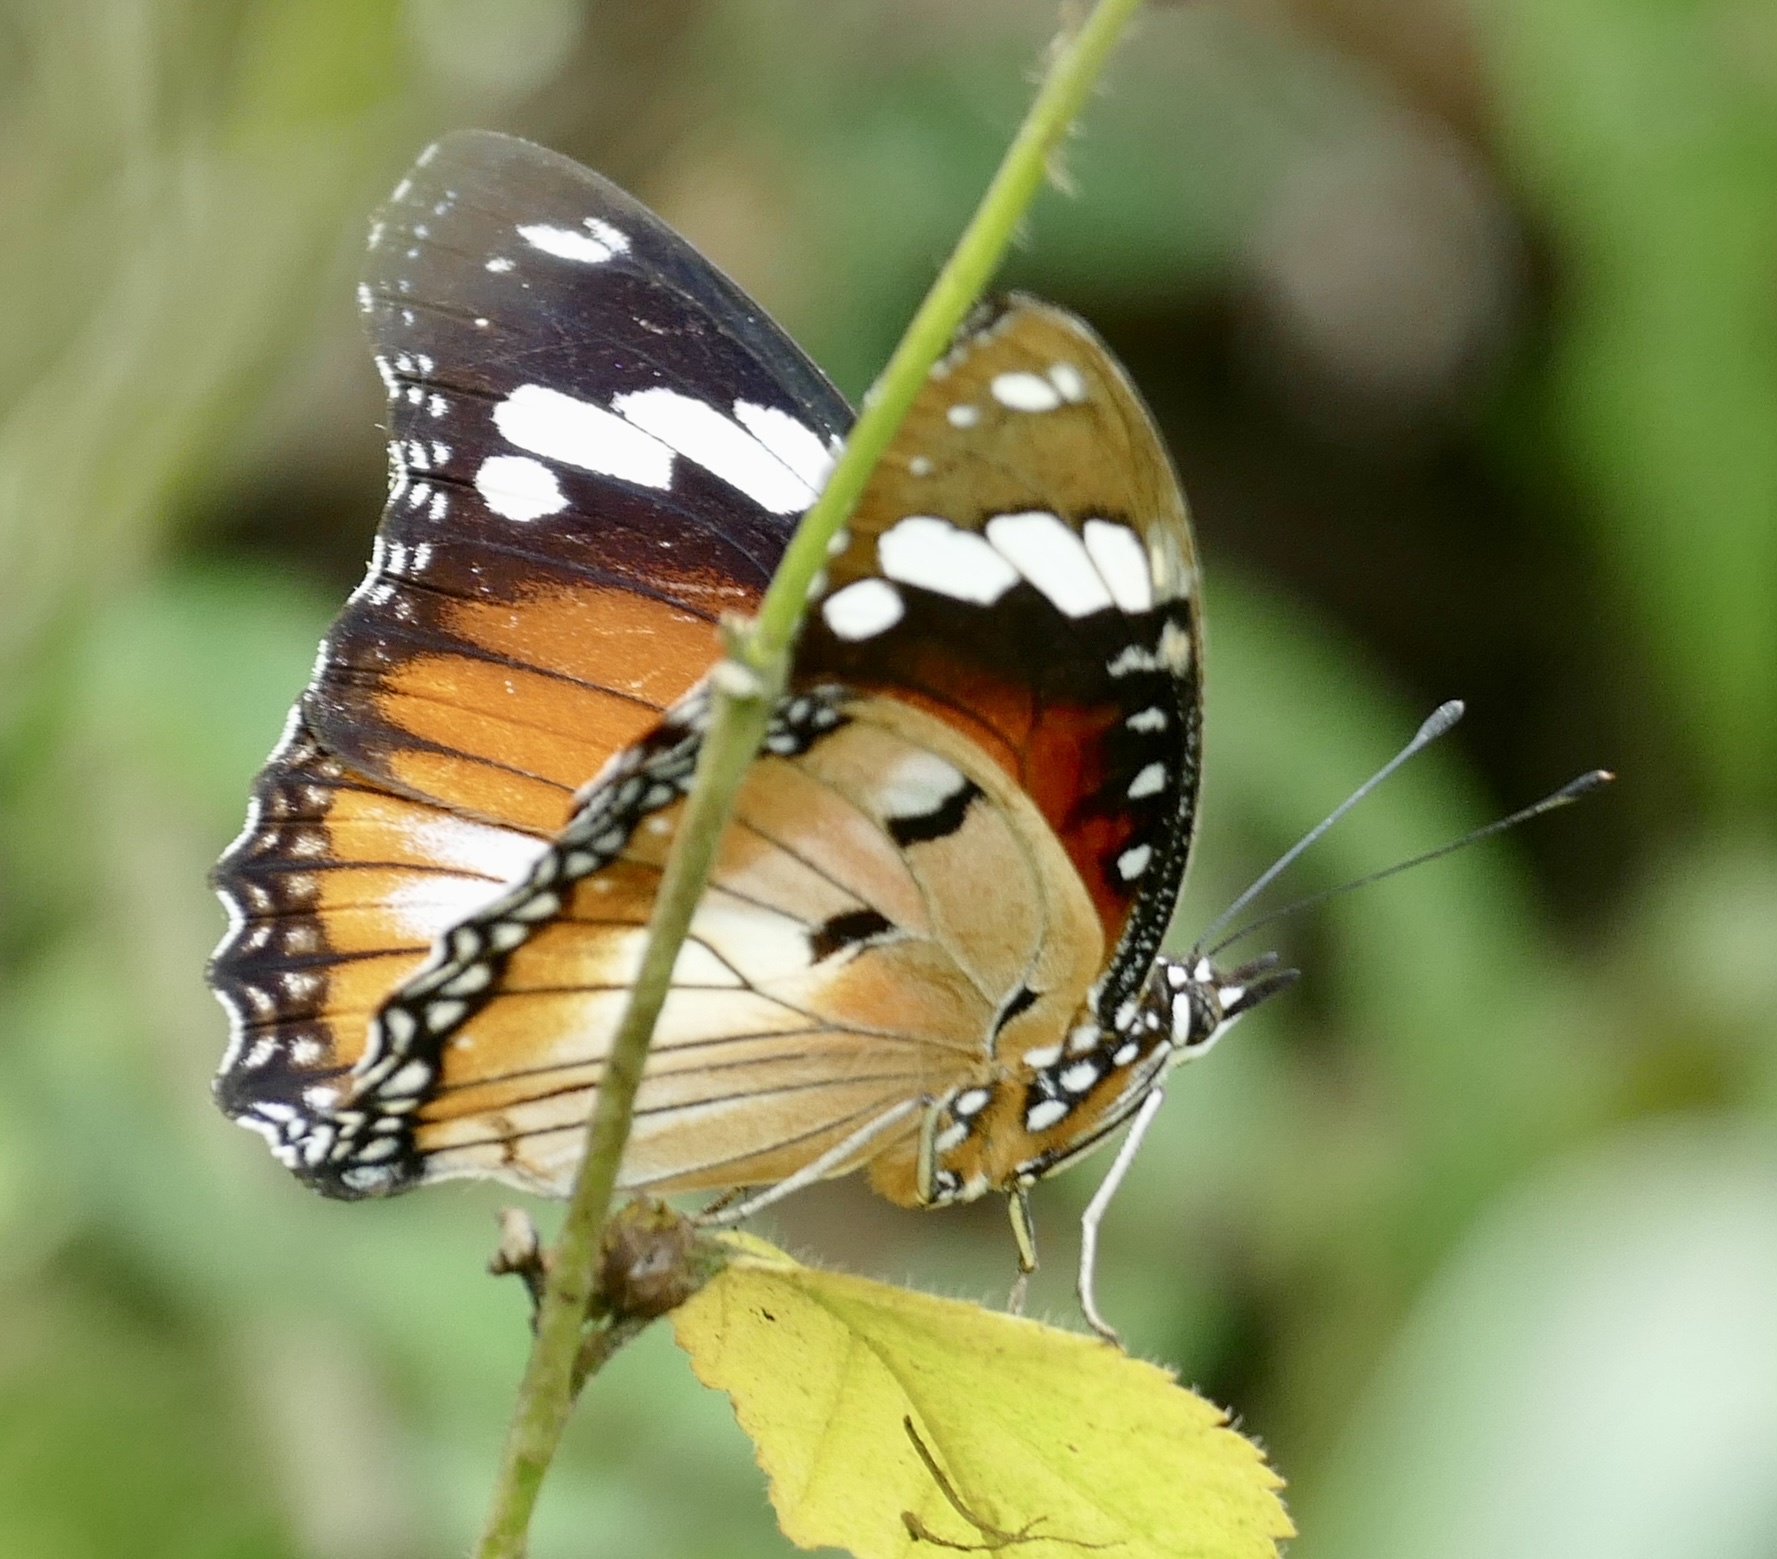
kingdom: Animalia
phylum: Arthropoda
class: Insecta
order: Lepidoptera
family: Nymphalidae
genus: Hypolimnas
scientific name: Hypolimnas misippus
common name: False plain tiger
